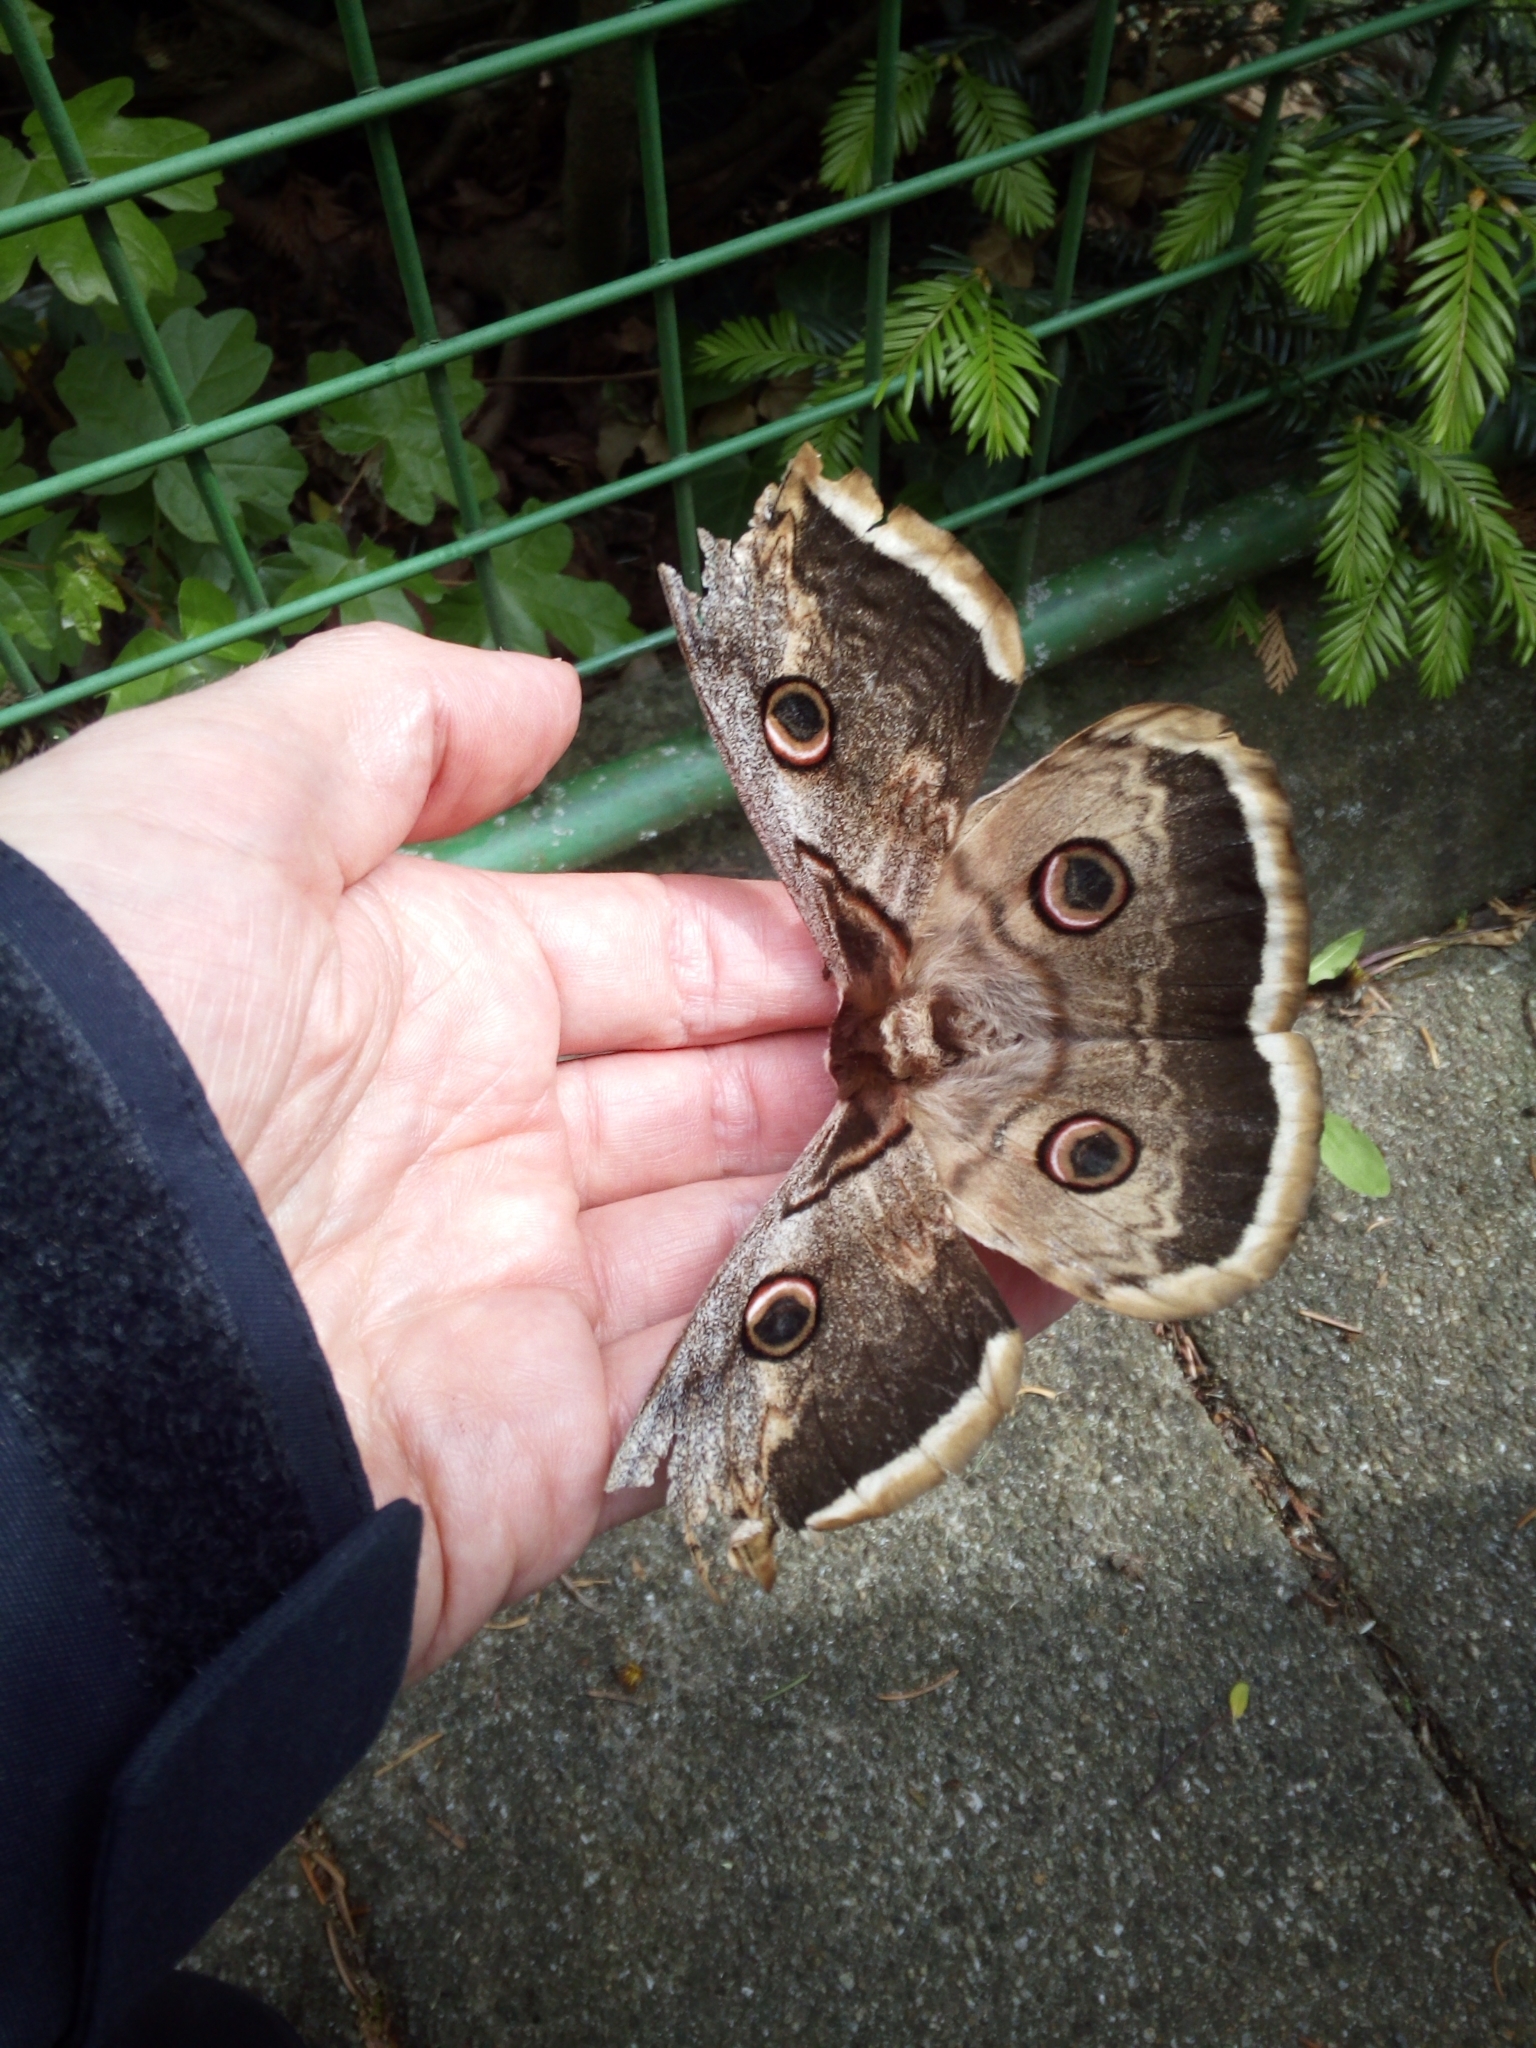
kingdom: Animalia
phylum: Arthropoda
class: Insecta
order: Lepidoptera
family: Saturniidae
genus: Saturnia
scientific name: Saturnia pyri
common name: Great peacock moth
